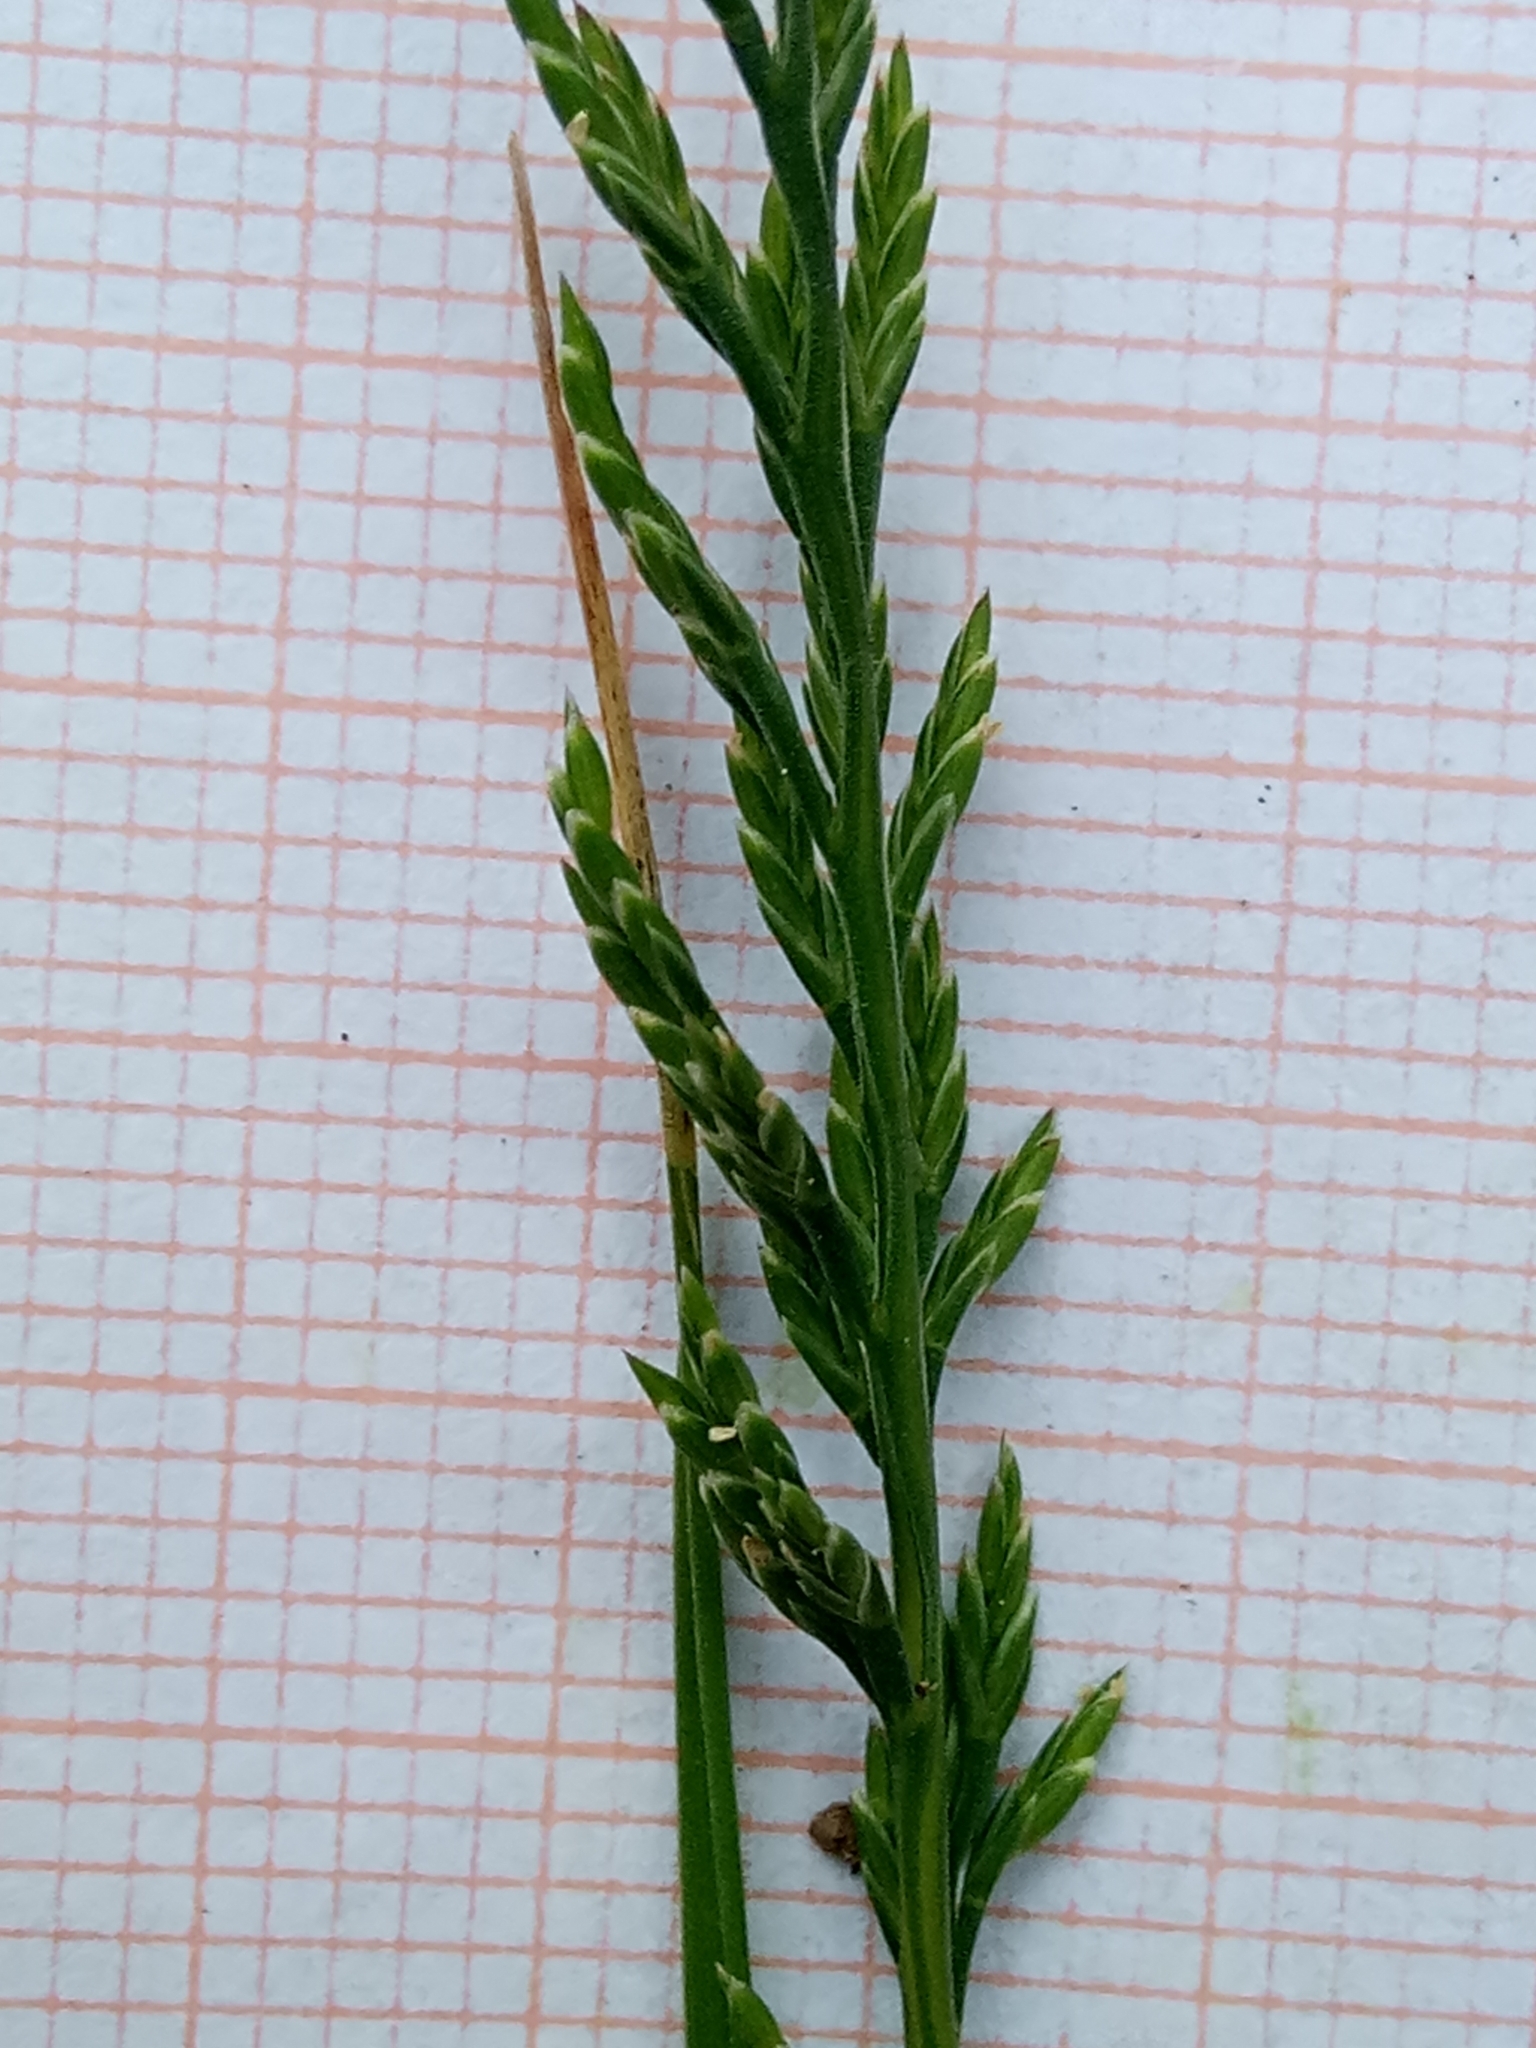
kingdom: Plantae
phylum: Tracheophyta
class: Liliopsida
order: Poales
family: Poaceae
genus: Catapodium
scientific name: Catapodium rigidum
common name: Fern-grass
